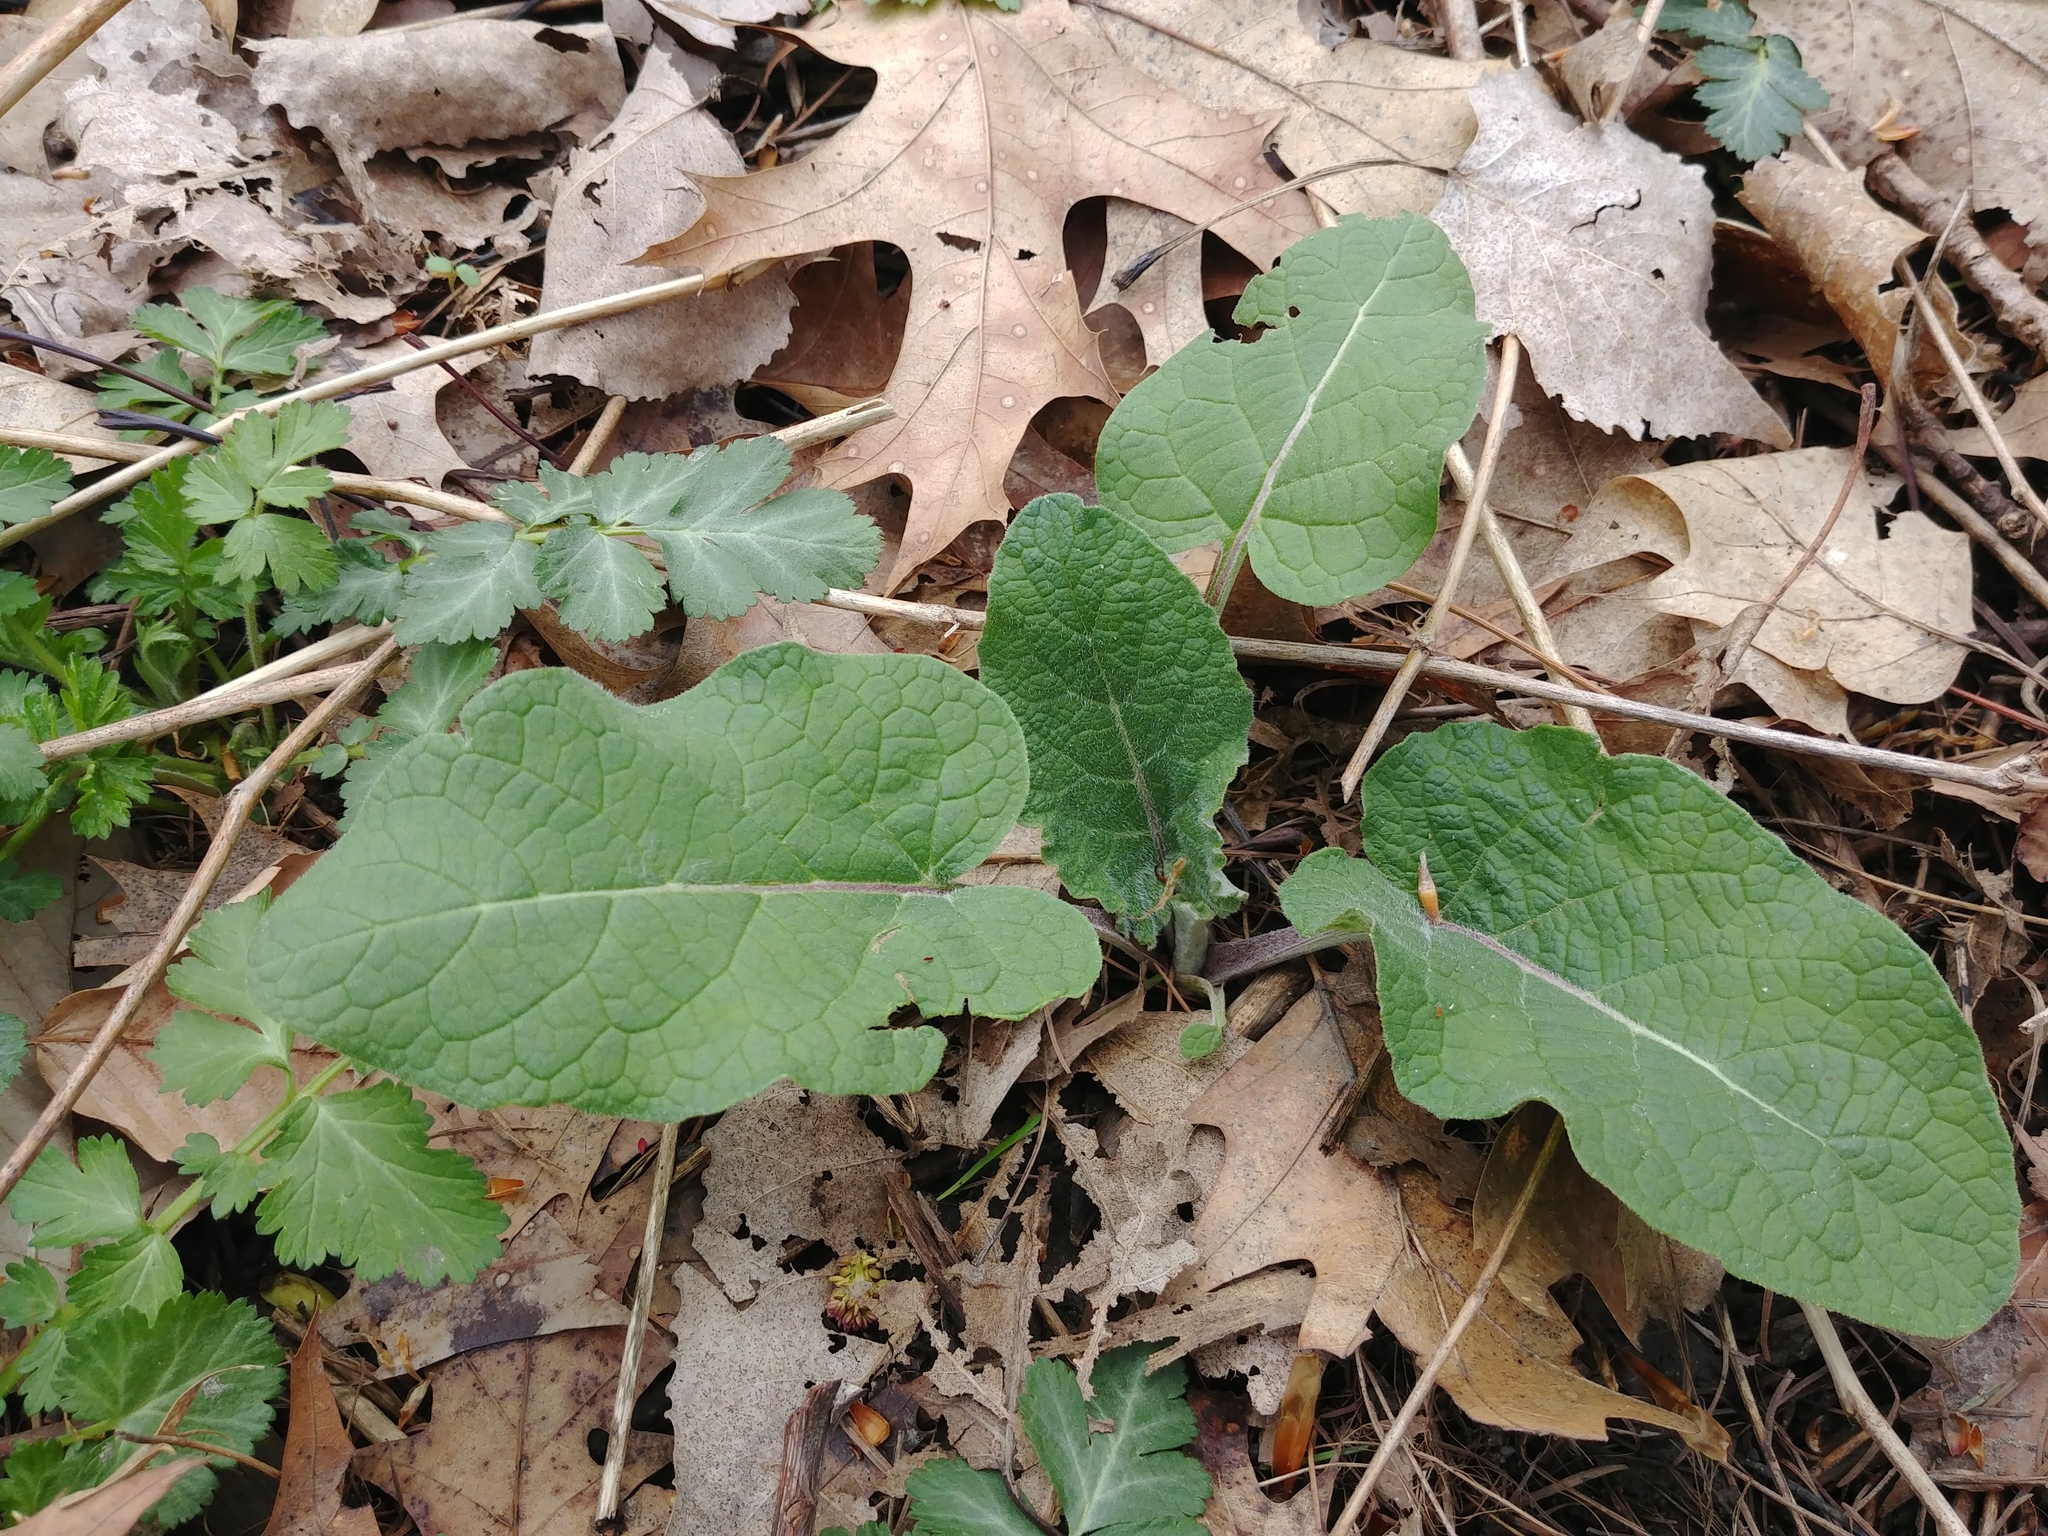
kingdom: Plantae
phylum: Tracheophyta
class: Magnoliopsida
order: Asterales
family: Asteraceae
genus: Arctium
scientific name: Arctium
